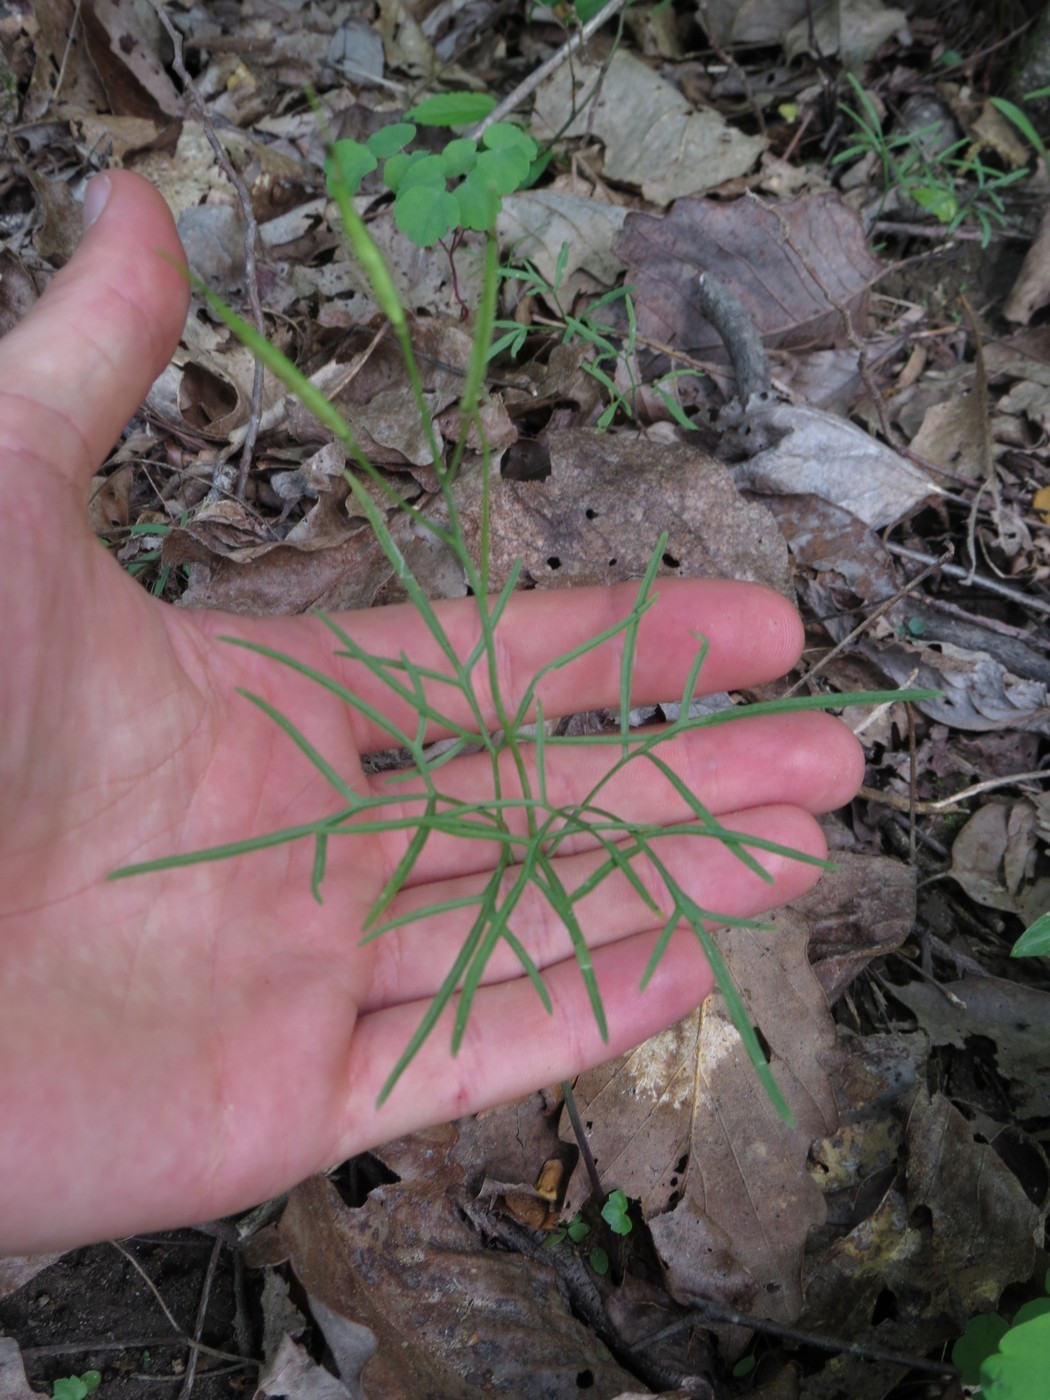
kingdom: Plantae
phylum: Tracheophyta
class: Magnoliopsida
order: Brassicales
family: Brassicaceae
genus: Cardamine
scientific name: Cardamine dissecta
